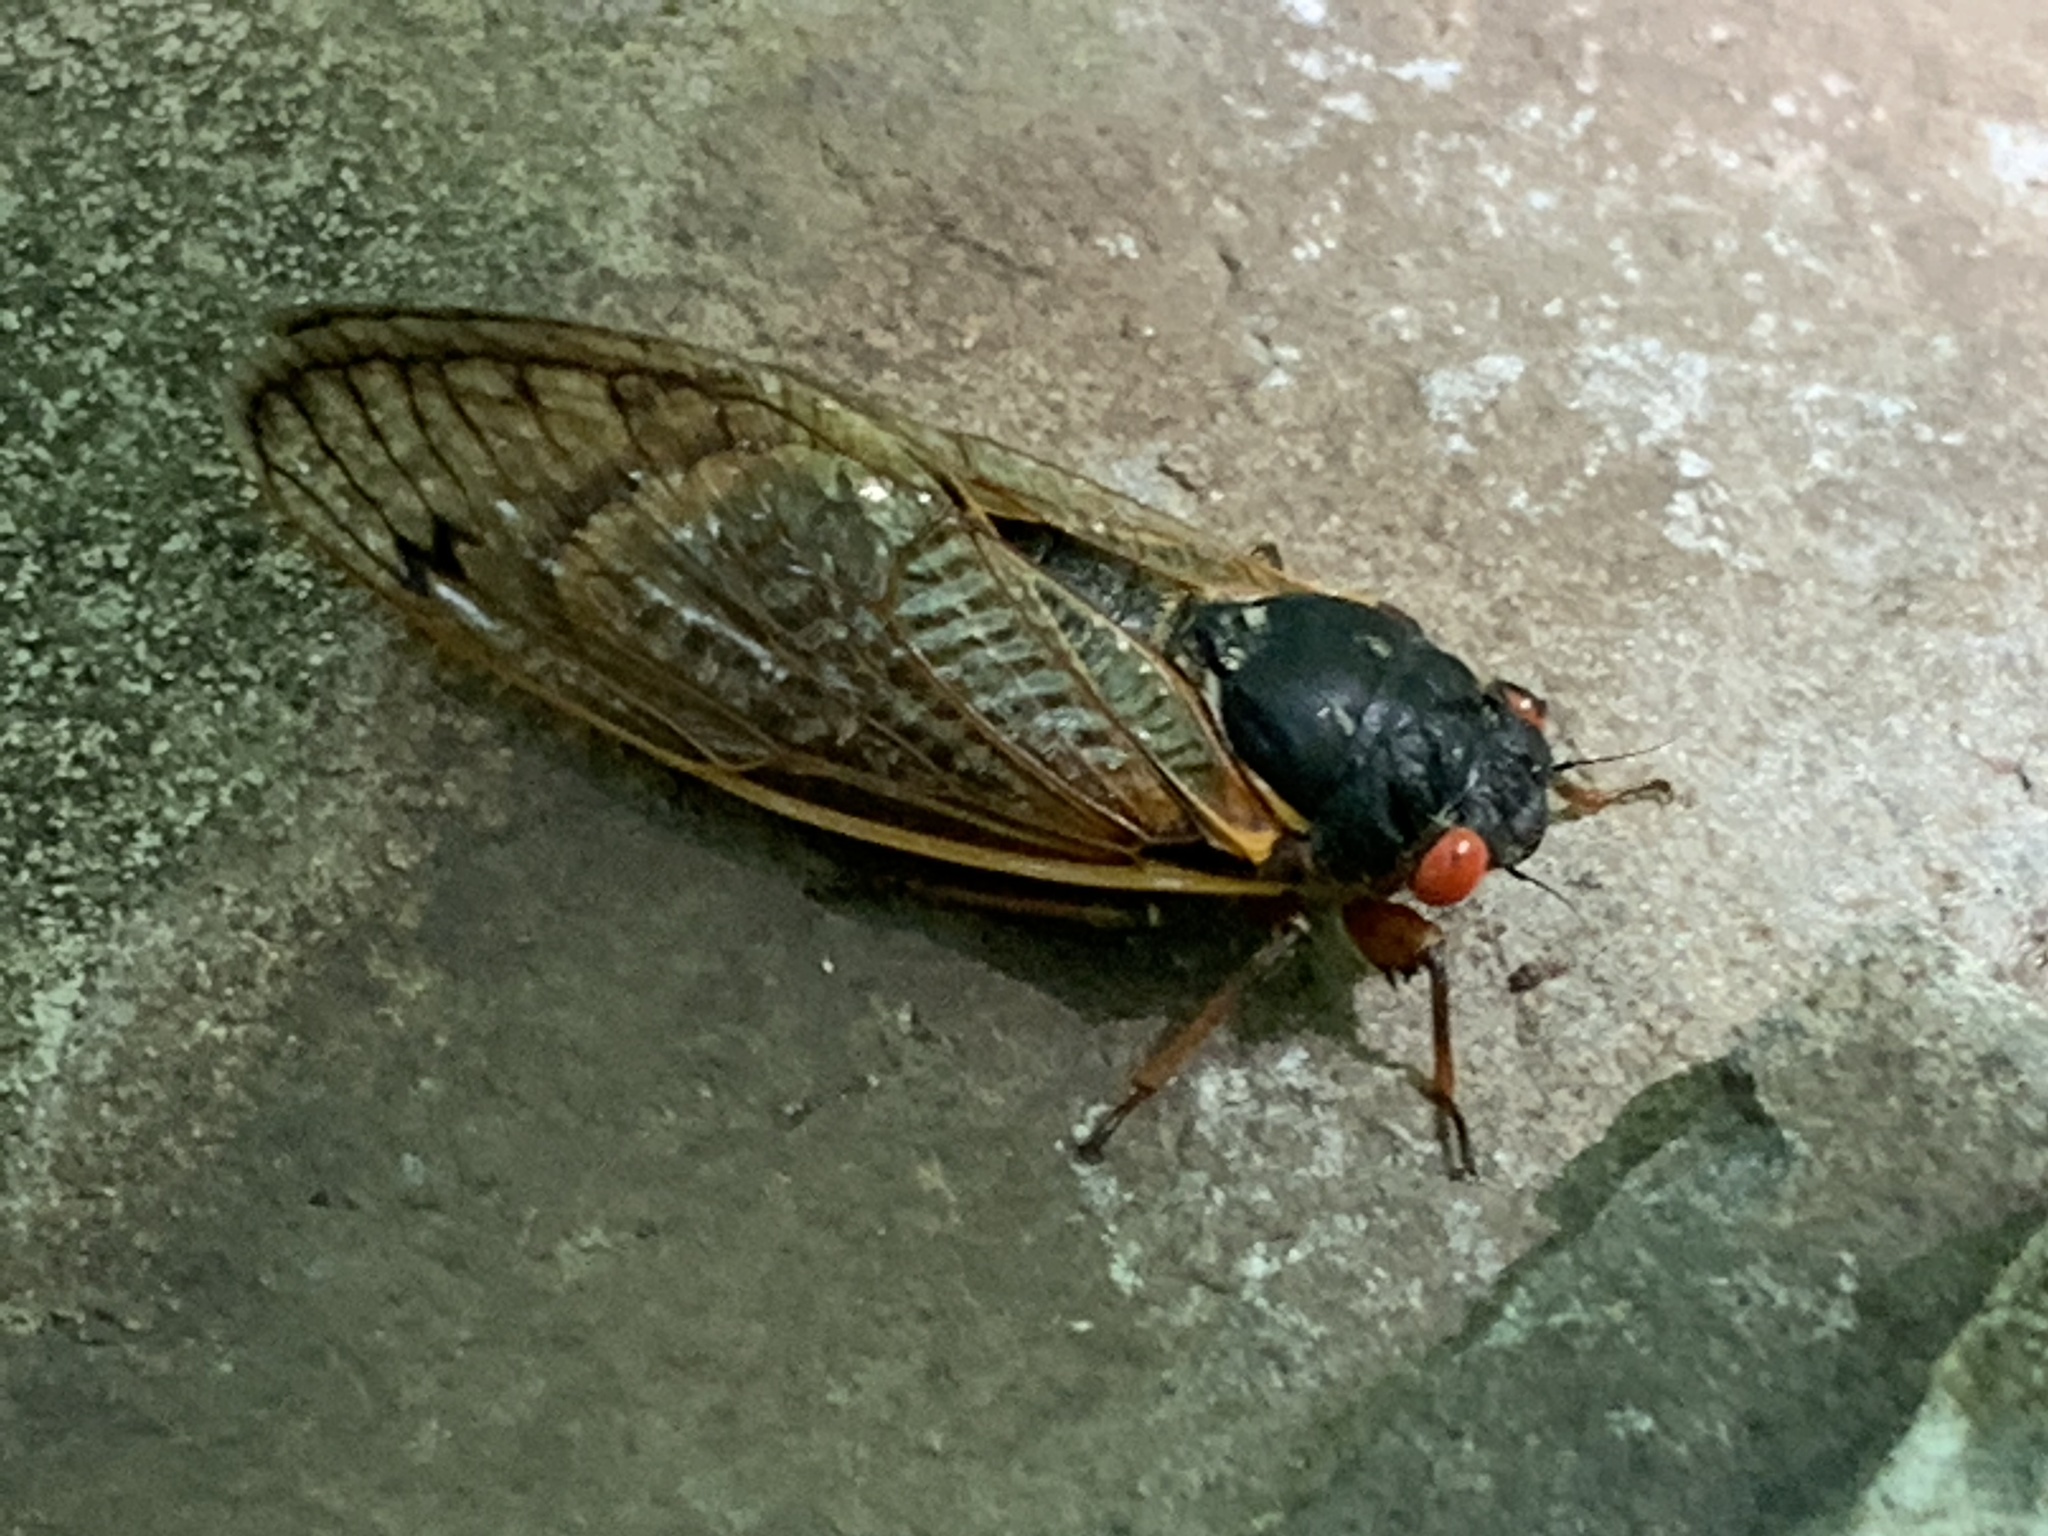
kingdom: Animalia
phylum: Arthropoda
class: Insecta
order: Hemiptera
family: Cicadidae
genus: Magicicada
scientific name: Magicicada
